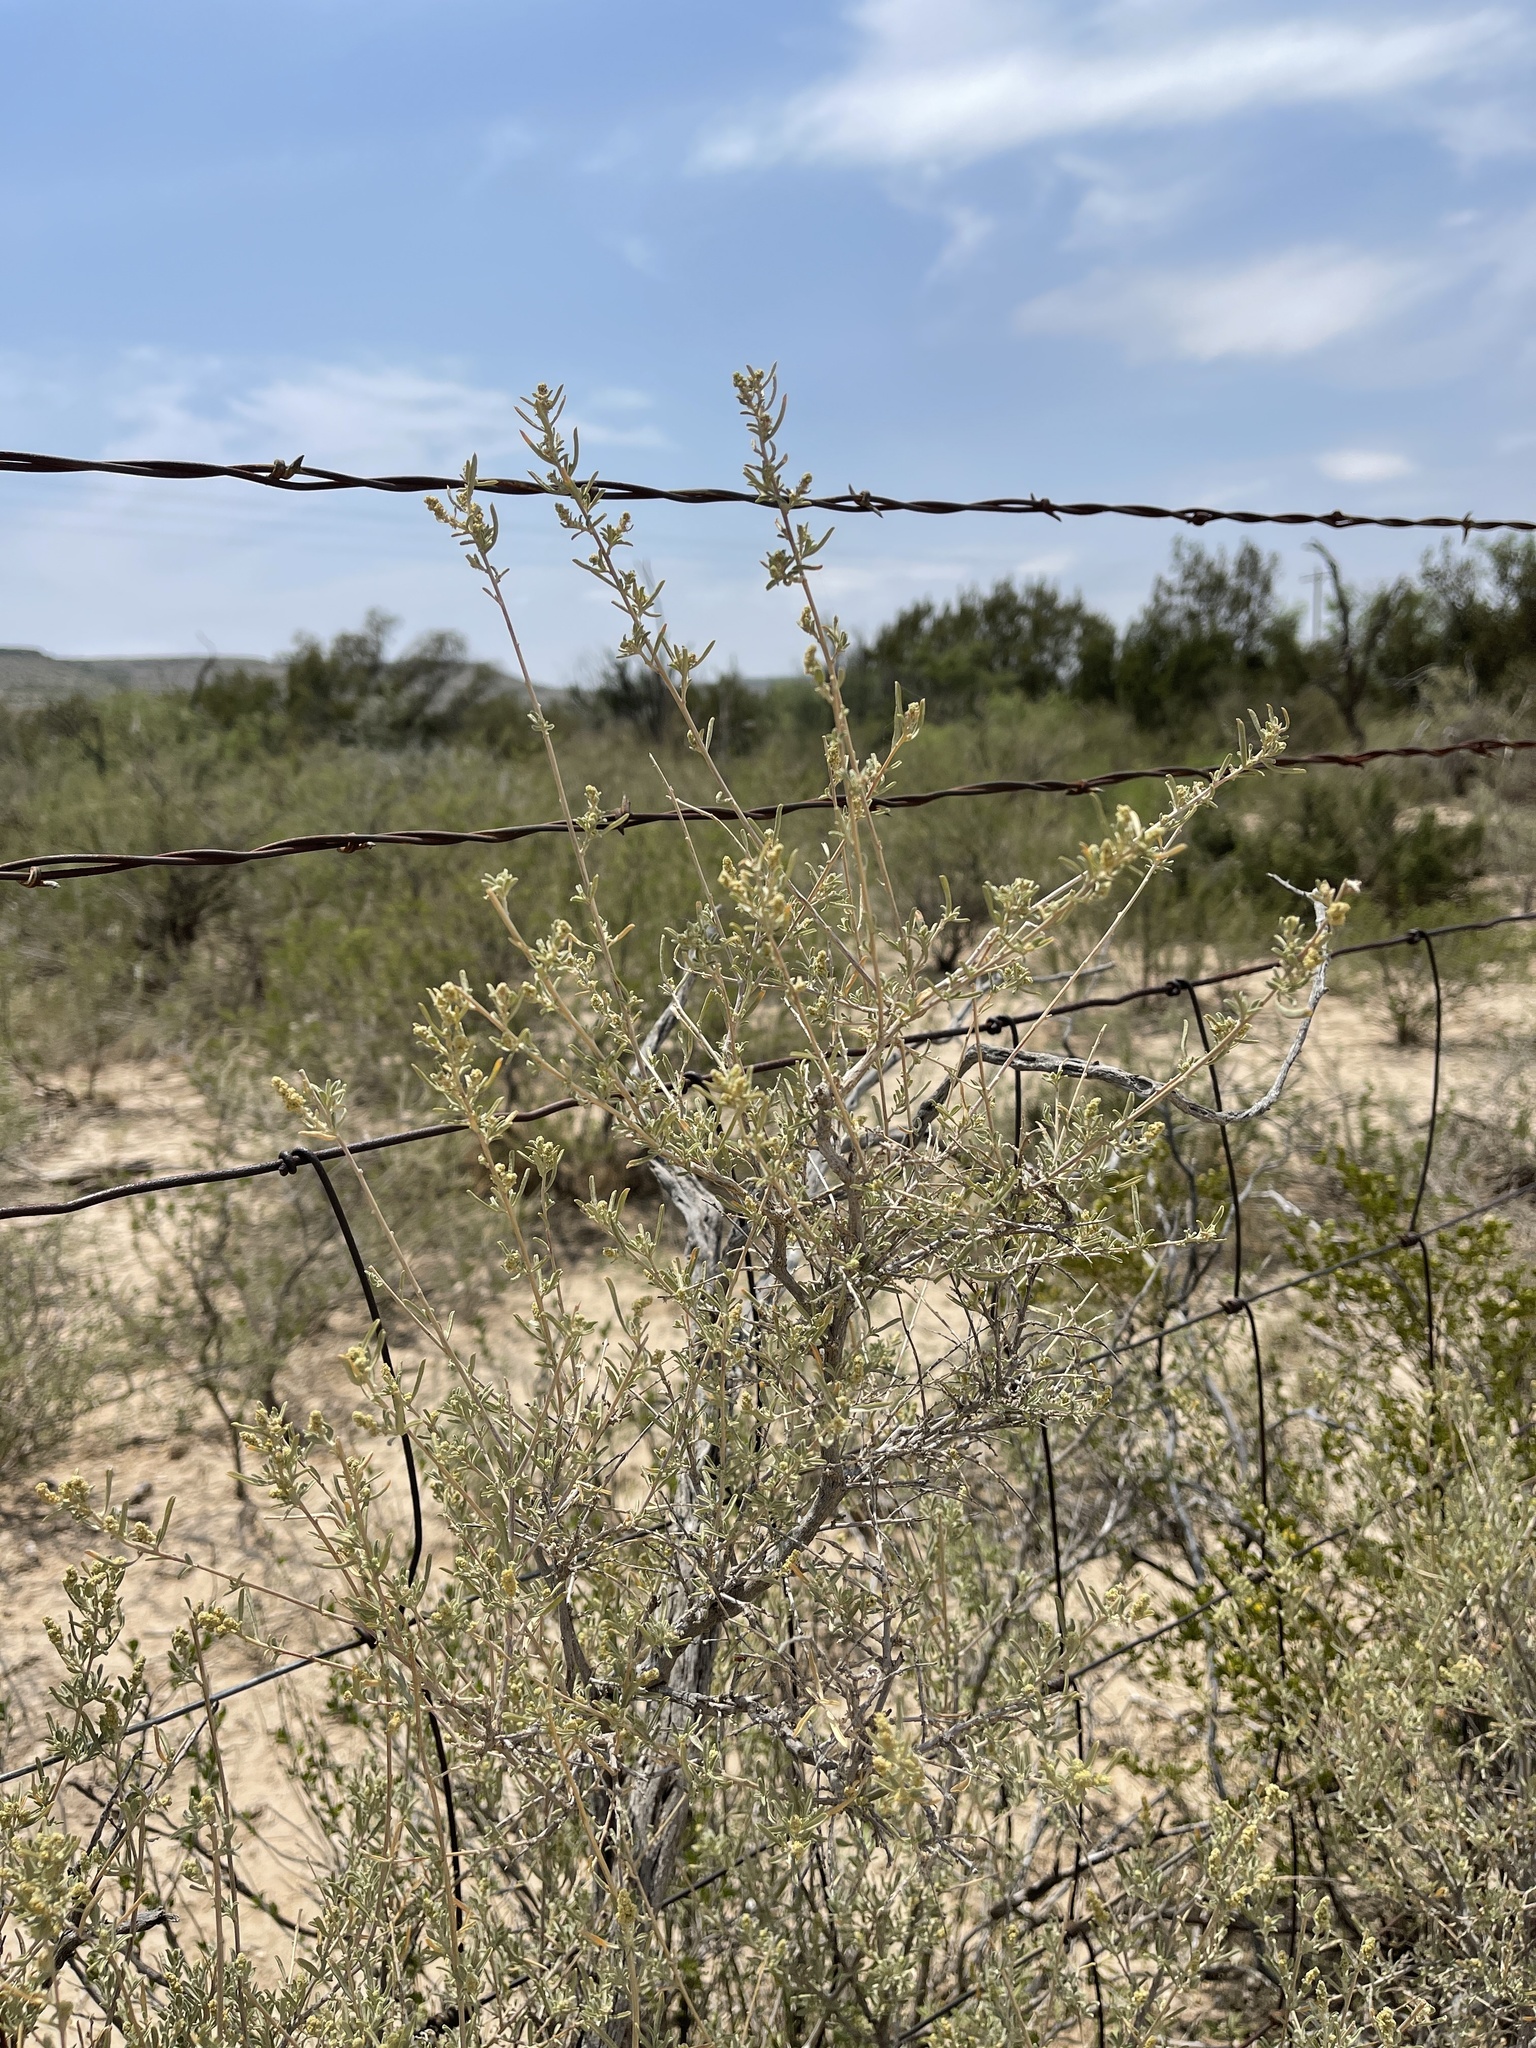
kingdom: Plantae
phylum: Tracheophyta
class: Magnoliopsida
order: Caryophyllales
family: Amaranthaceae
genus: Atriplex
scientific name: Atriplex canescens
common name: Four-wing saltbush
